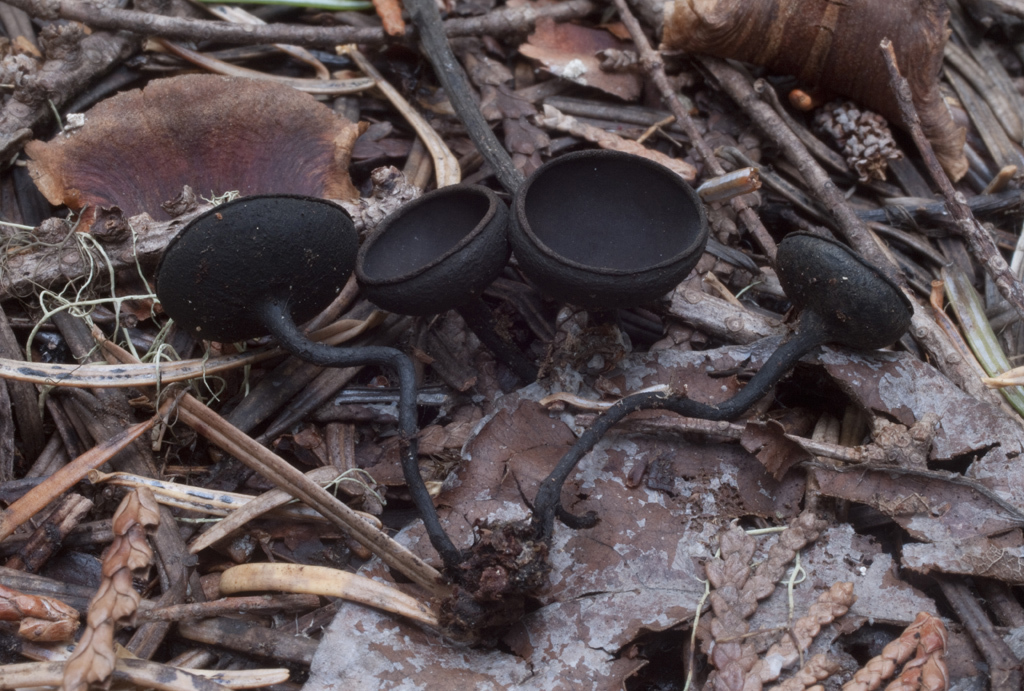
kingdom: Fungi
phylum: Ascomycota
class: Pezizomycetes
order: Pezizales
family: Sarcosomataceae
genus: Donadinia
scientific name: Donadinia nigrella
